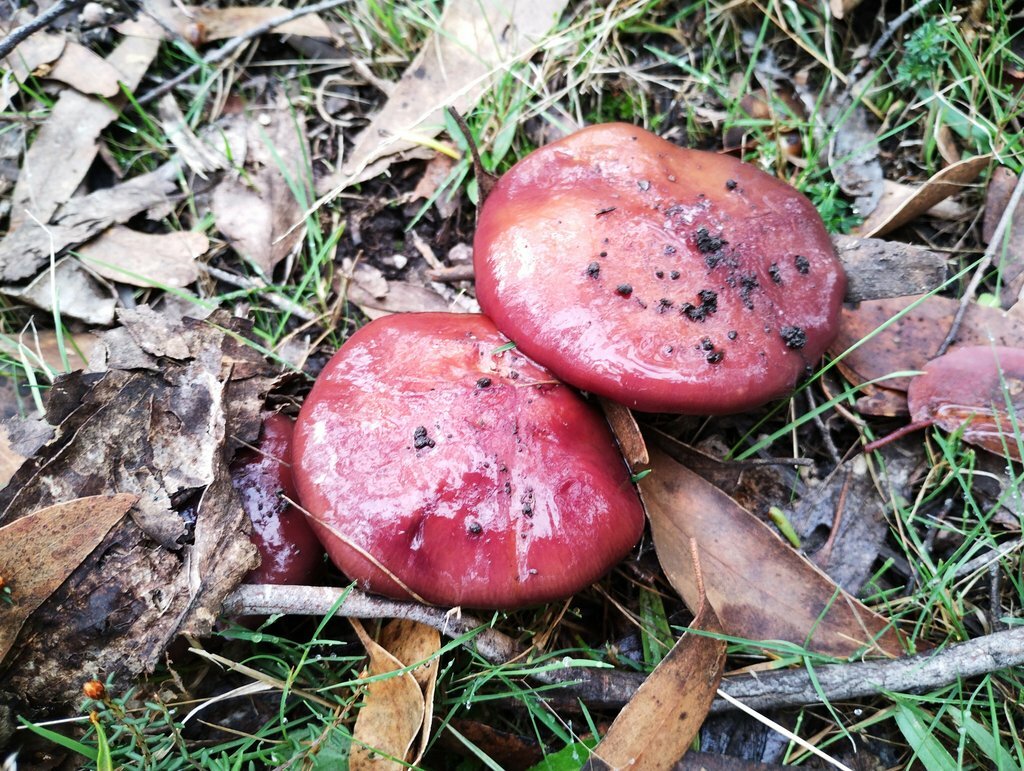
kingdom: Fungi
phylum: Basidiomycota
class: Agaricomycetes
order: Agaricales
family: Cortinariaceae
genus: Cortinarius
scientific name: Cortinarius archeri
